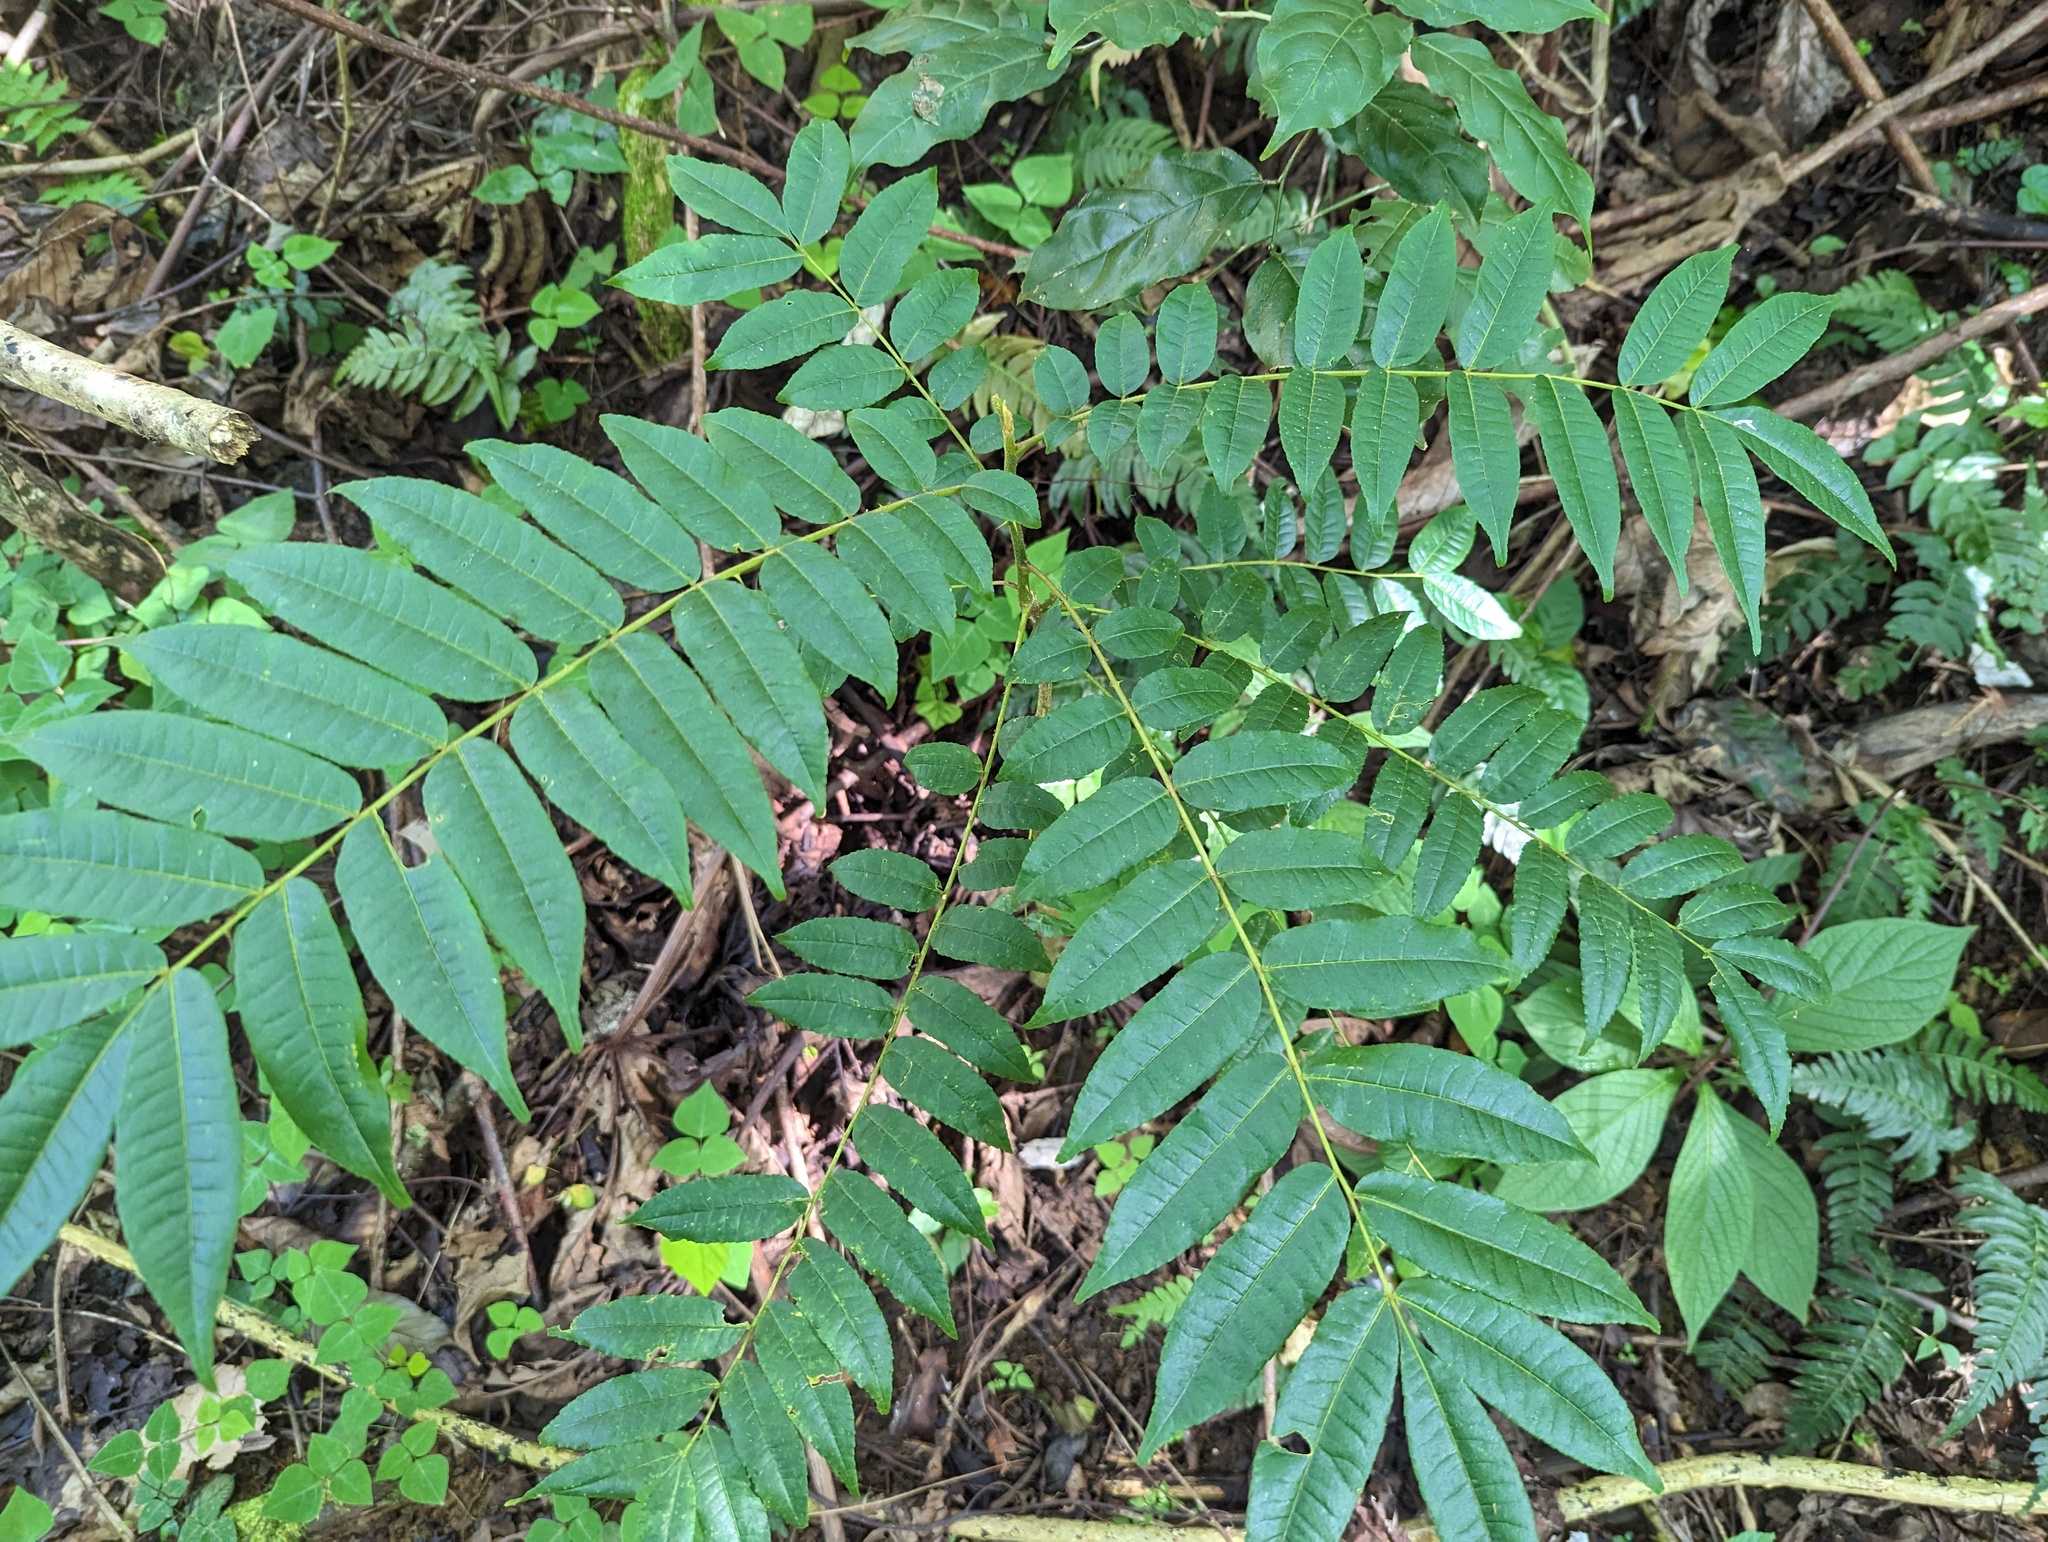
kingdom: Plantae
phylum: Tracheophyta
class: Magnoliopsida
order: Sapindales
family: Rutaceae
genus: Zanthoxylum
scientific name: Zanthoxylum martinicense
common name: Yellow prickle
